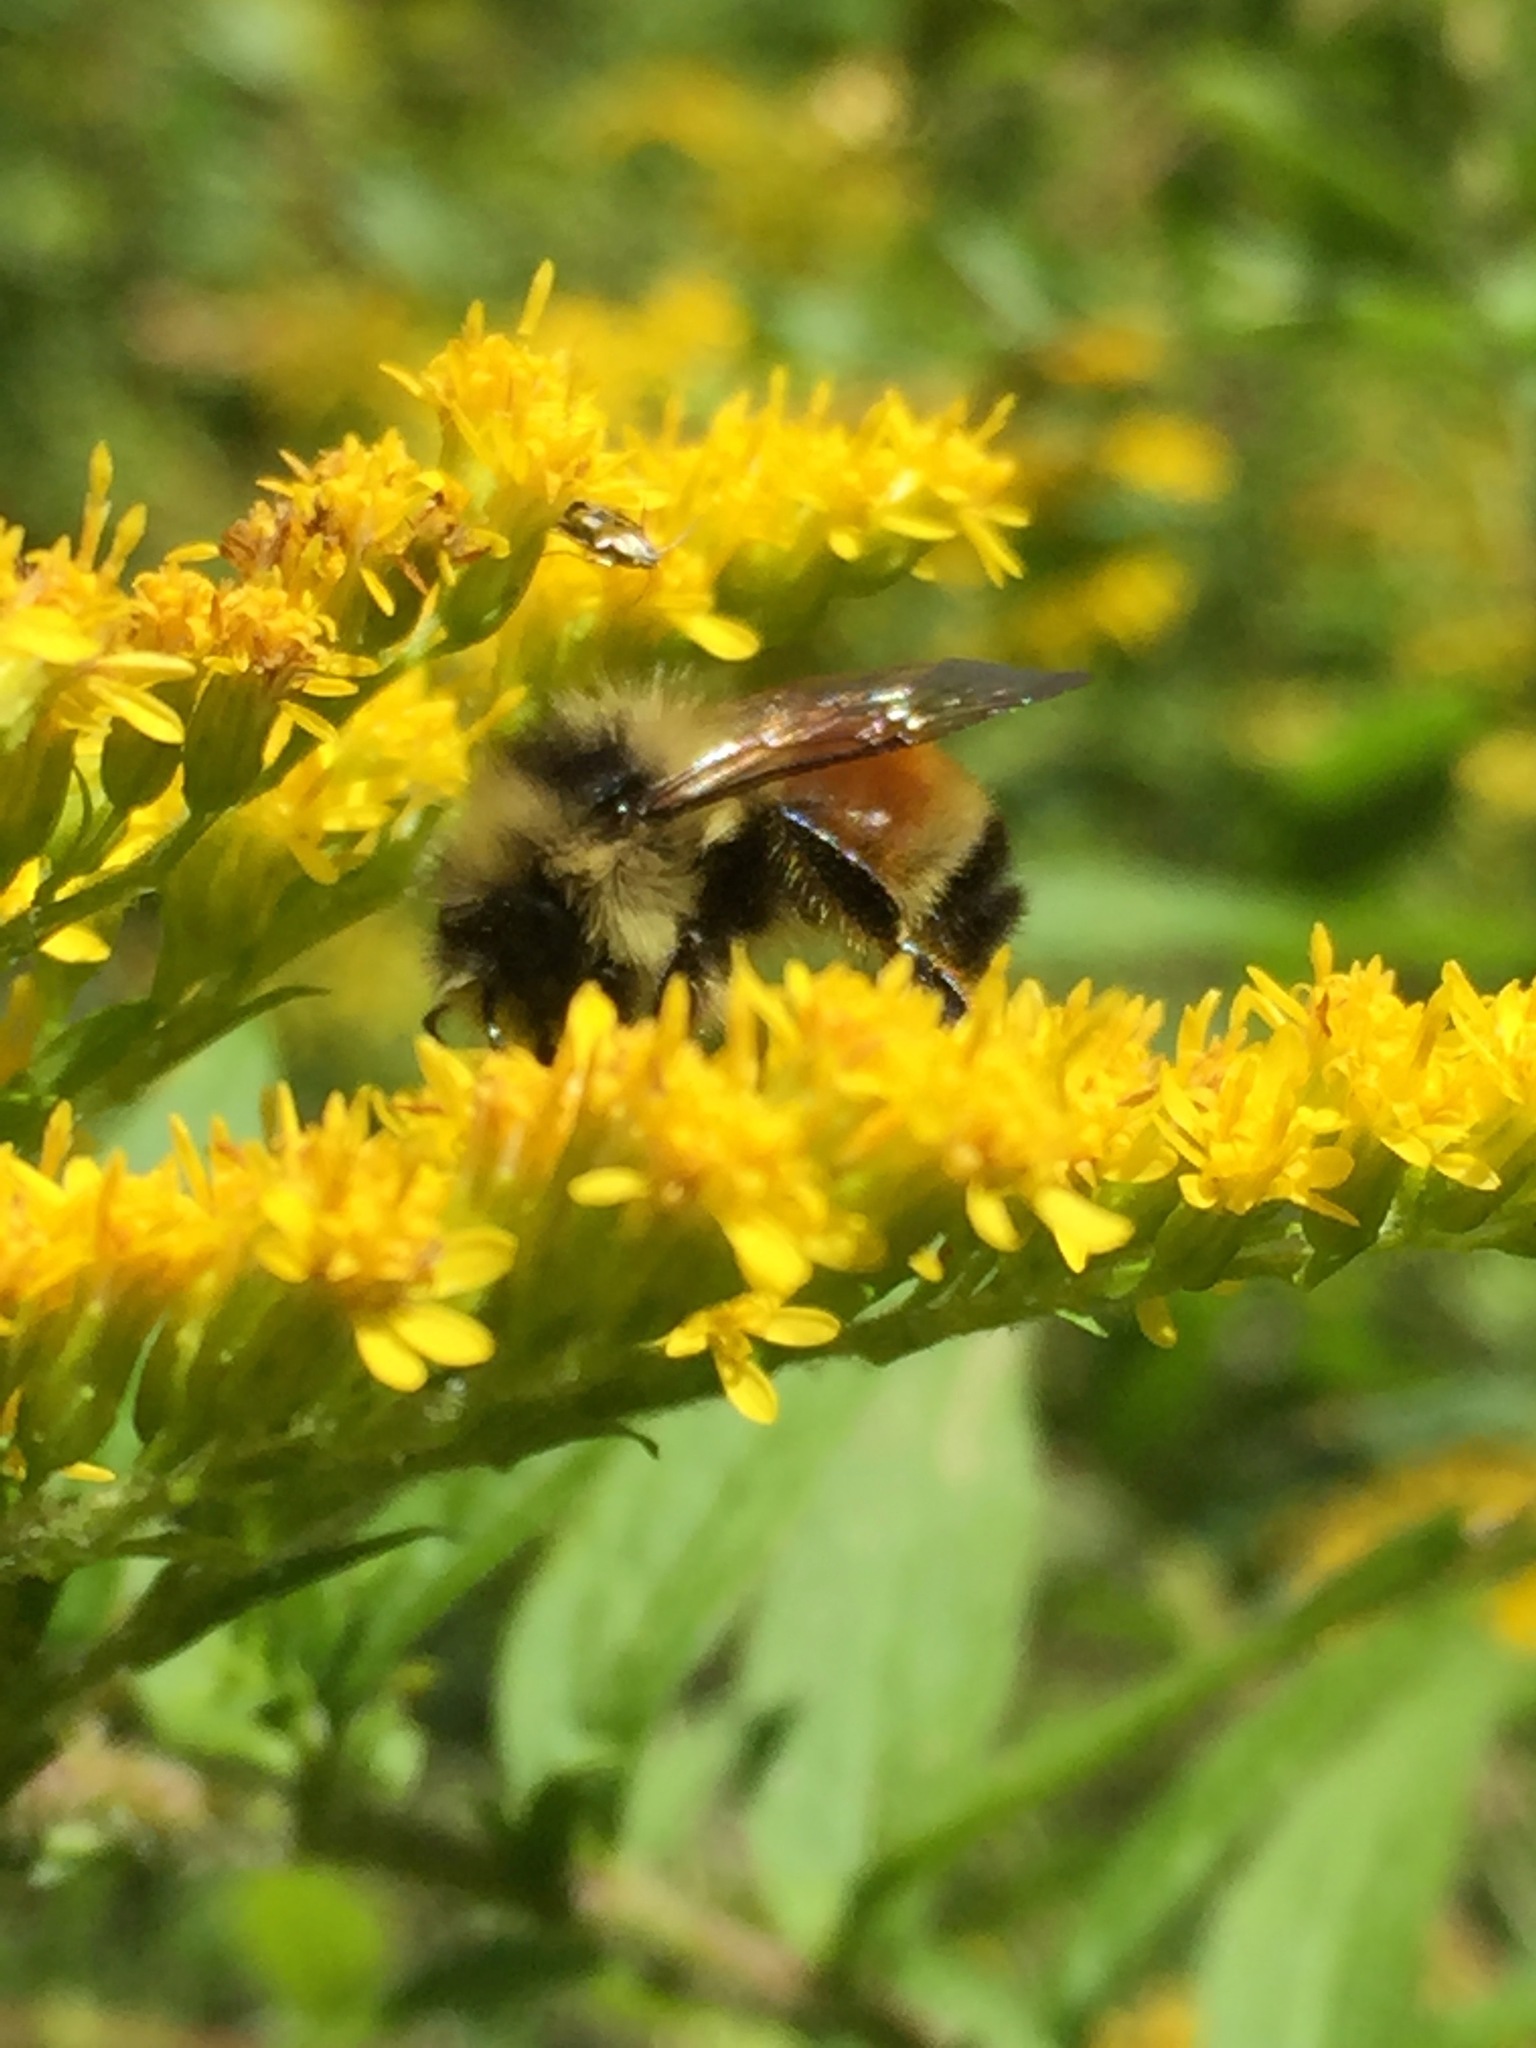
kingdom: Animalia
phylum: Arthropoda
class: Insecta
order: Hymenoptera
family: Apidae
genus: Bombus
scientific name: Bombus ternarius
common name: Tri-colored bumble bee
